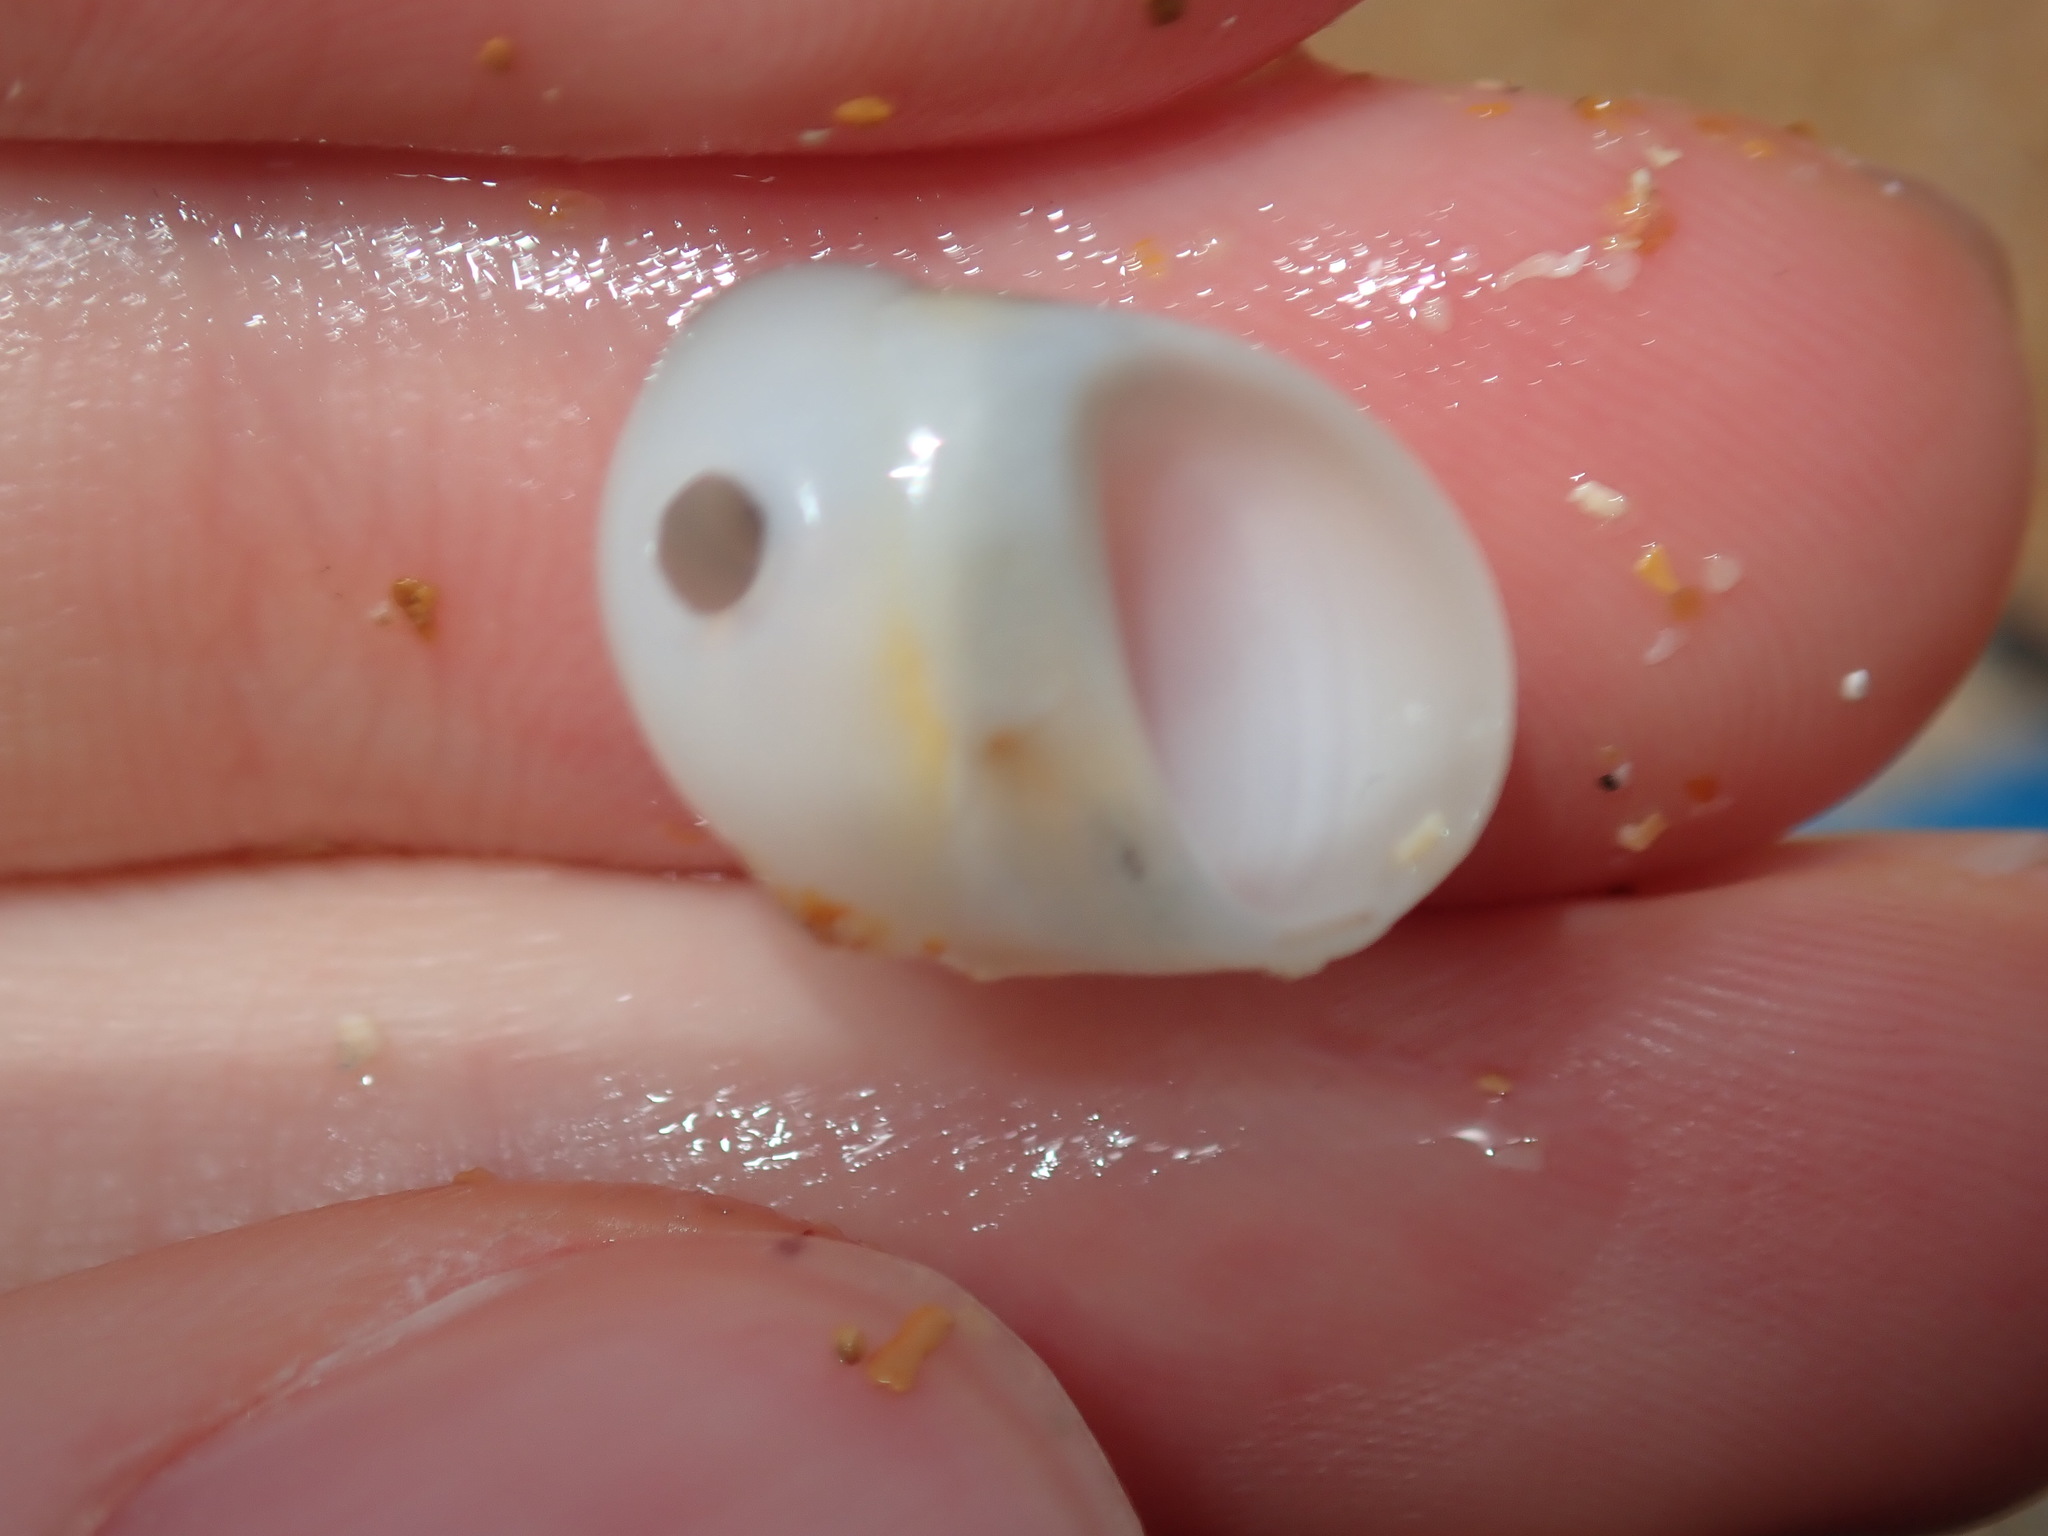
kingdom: Animalia
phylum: Mollusca
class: Gastropoda
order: Littorinimorpha
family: Naticidae
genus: Conuber
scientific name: Conuber conicum
